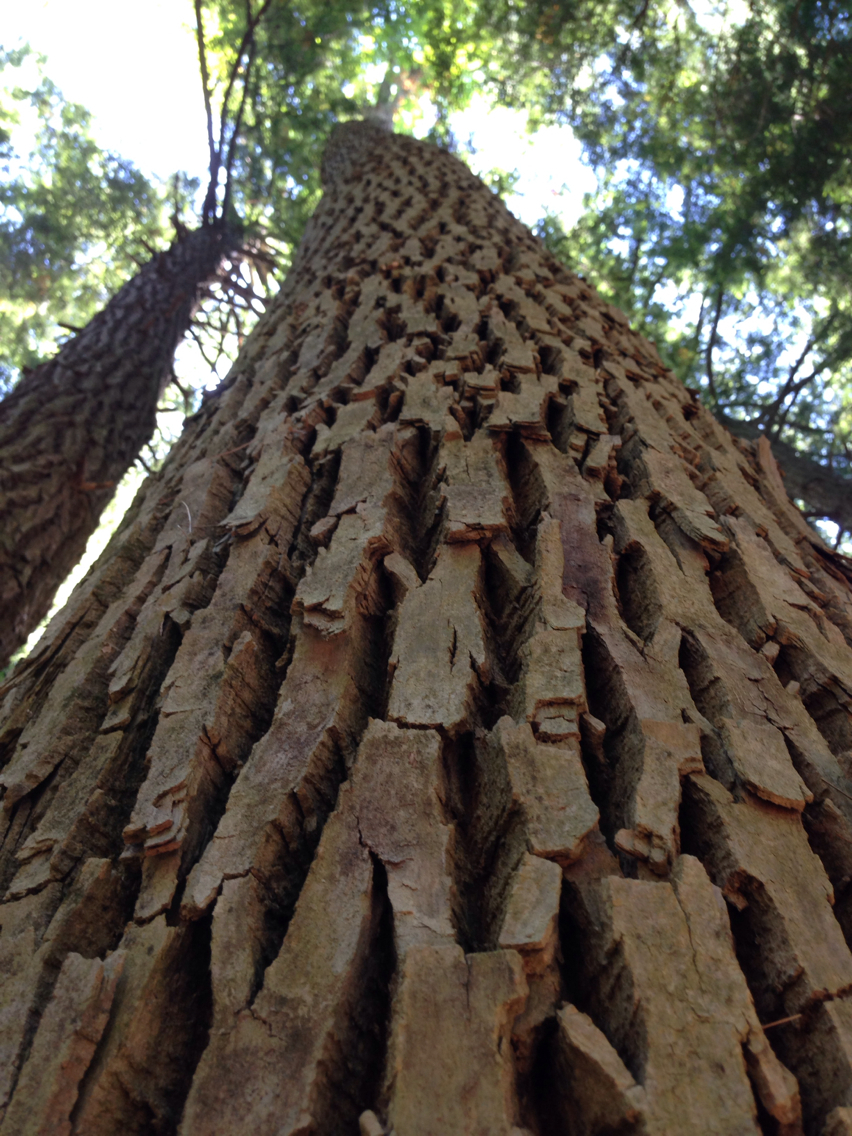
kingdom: Plantae
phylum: Tracheophyta
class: Magnoliopsida
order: Lamiales
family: Oleaceae
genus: Fraxinus
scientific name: Fraxinus americana
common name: White ash
